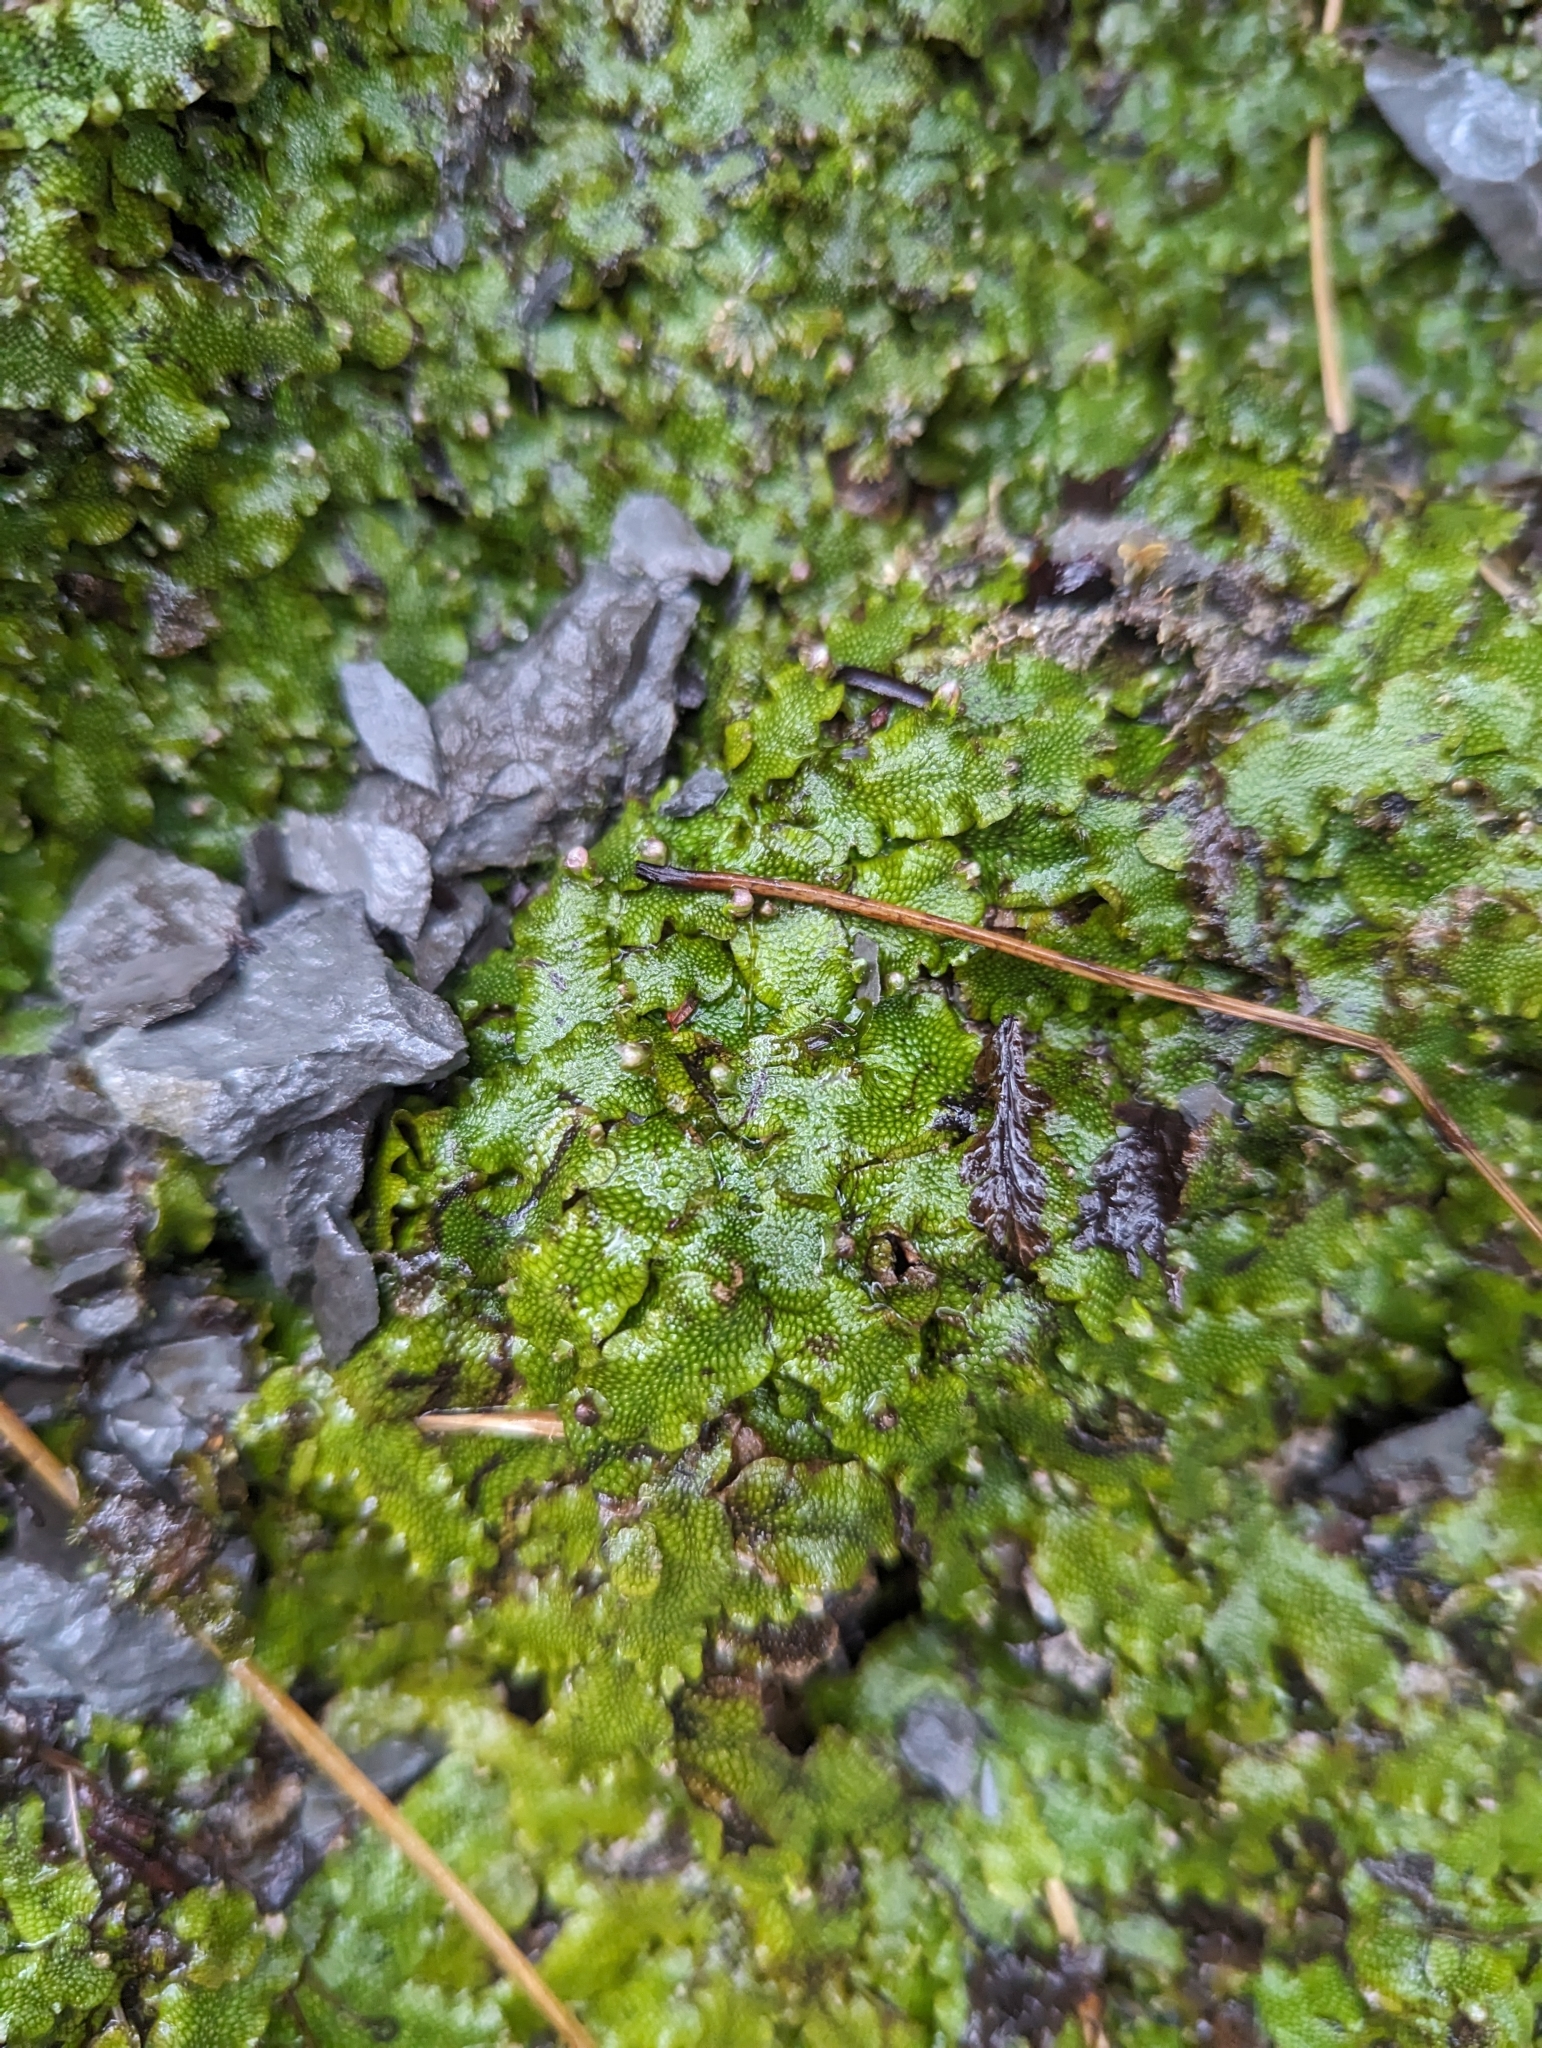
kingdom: Plantae
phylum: Marchantiophyta
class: Marchantiopsida
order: Marchantiales
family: Conocephalaceae
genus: Conocephalum
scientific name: Conocephalum salebrosum
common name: Cat-tongue liverwort
